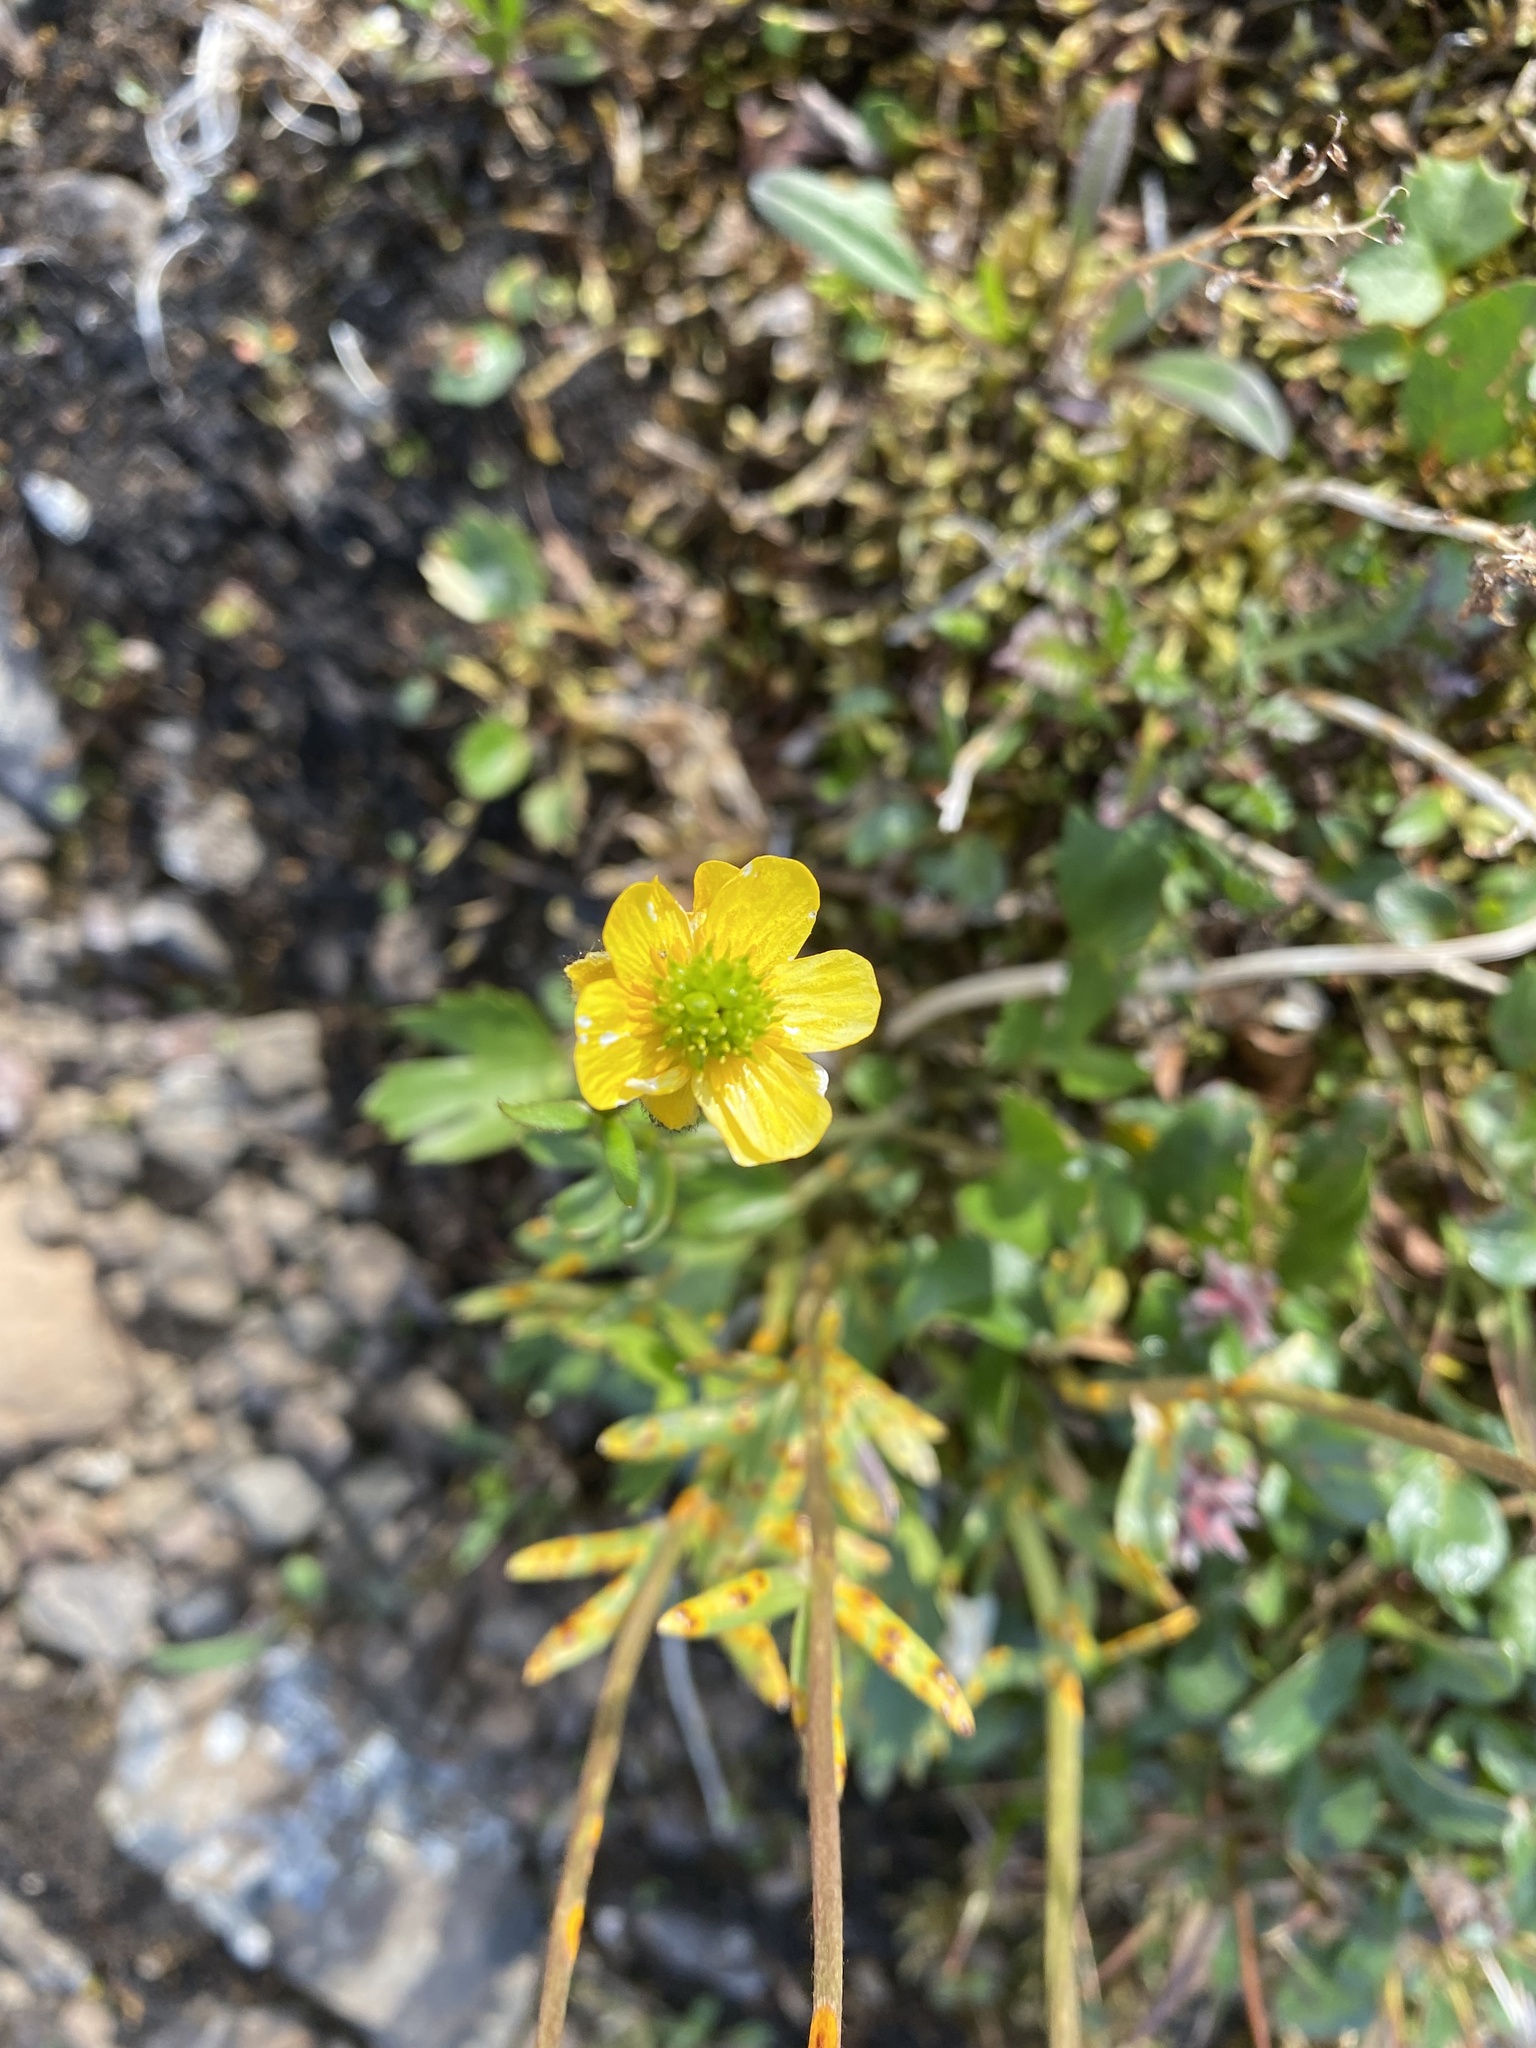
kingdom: Plantae
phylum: Tracheophyta
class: Magnoliopsida
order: Ranunculales
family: Ranunculaceae
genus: Ranunculus
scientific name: Ranunculus sulphureus
